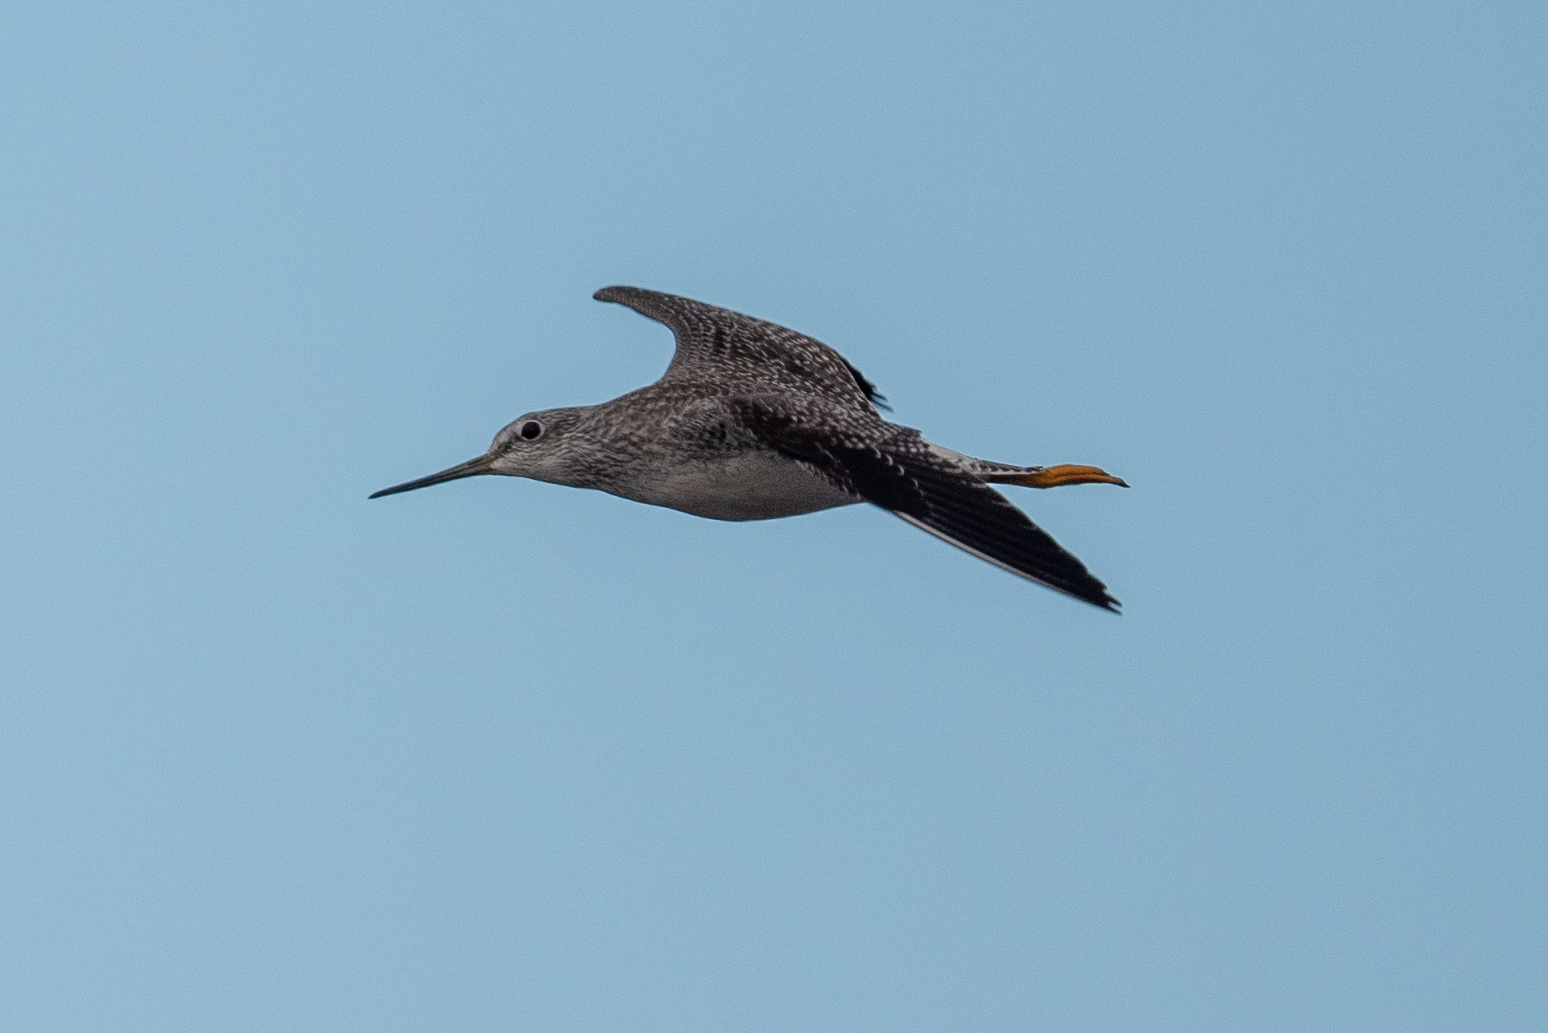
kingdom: Animalia
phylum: Chordata
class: Aves
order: Charadriiformes
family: Scolopacidae
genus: Tringa
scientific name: Tringa melanoleuca
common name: Greater yellowlegs
